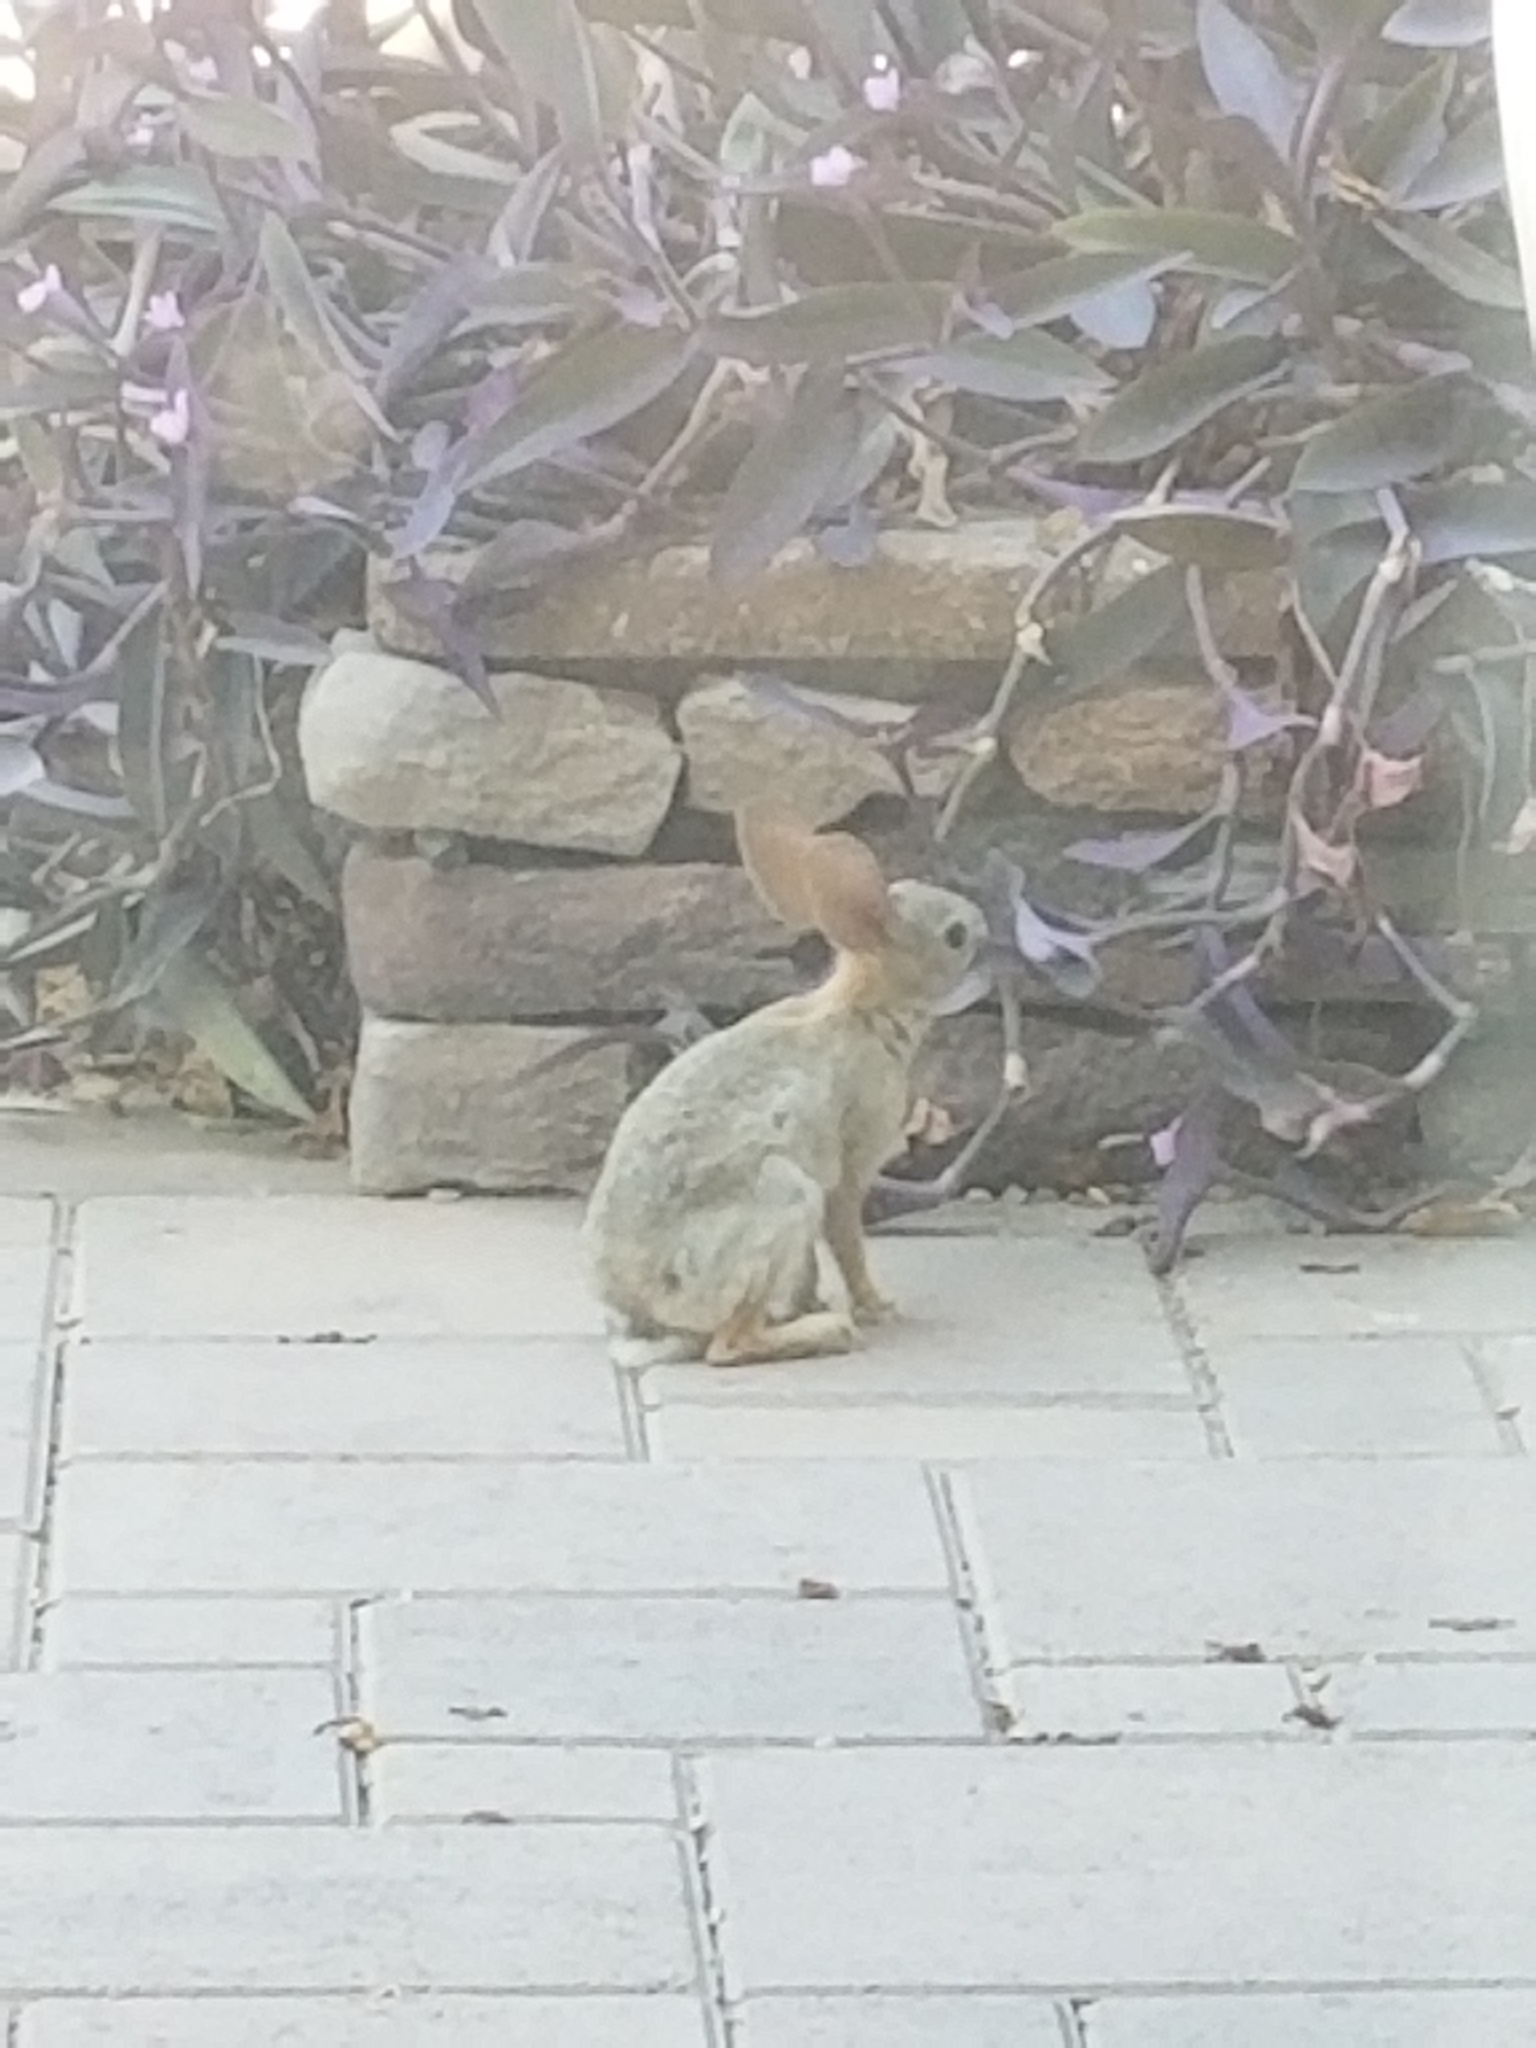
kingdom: Animalia
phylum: Chordata
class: Mammalia
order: Lagomorpha
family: Leporidae
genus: Sylvilagus
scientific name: Sylvilagus audubonii
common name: Desert cottontail
